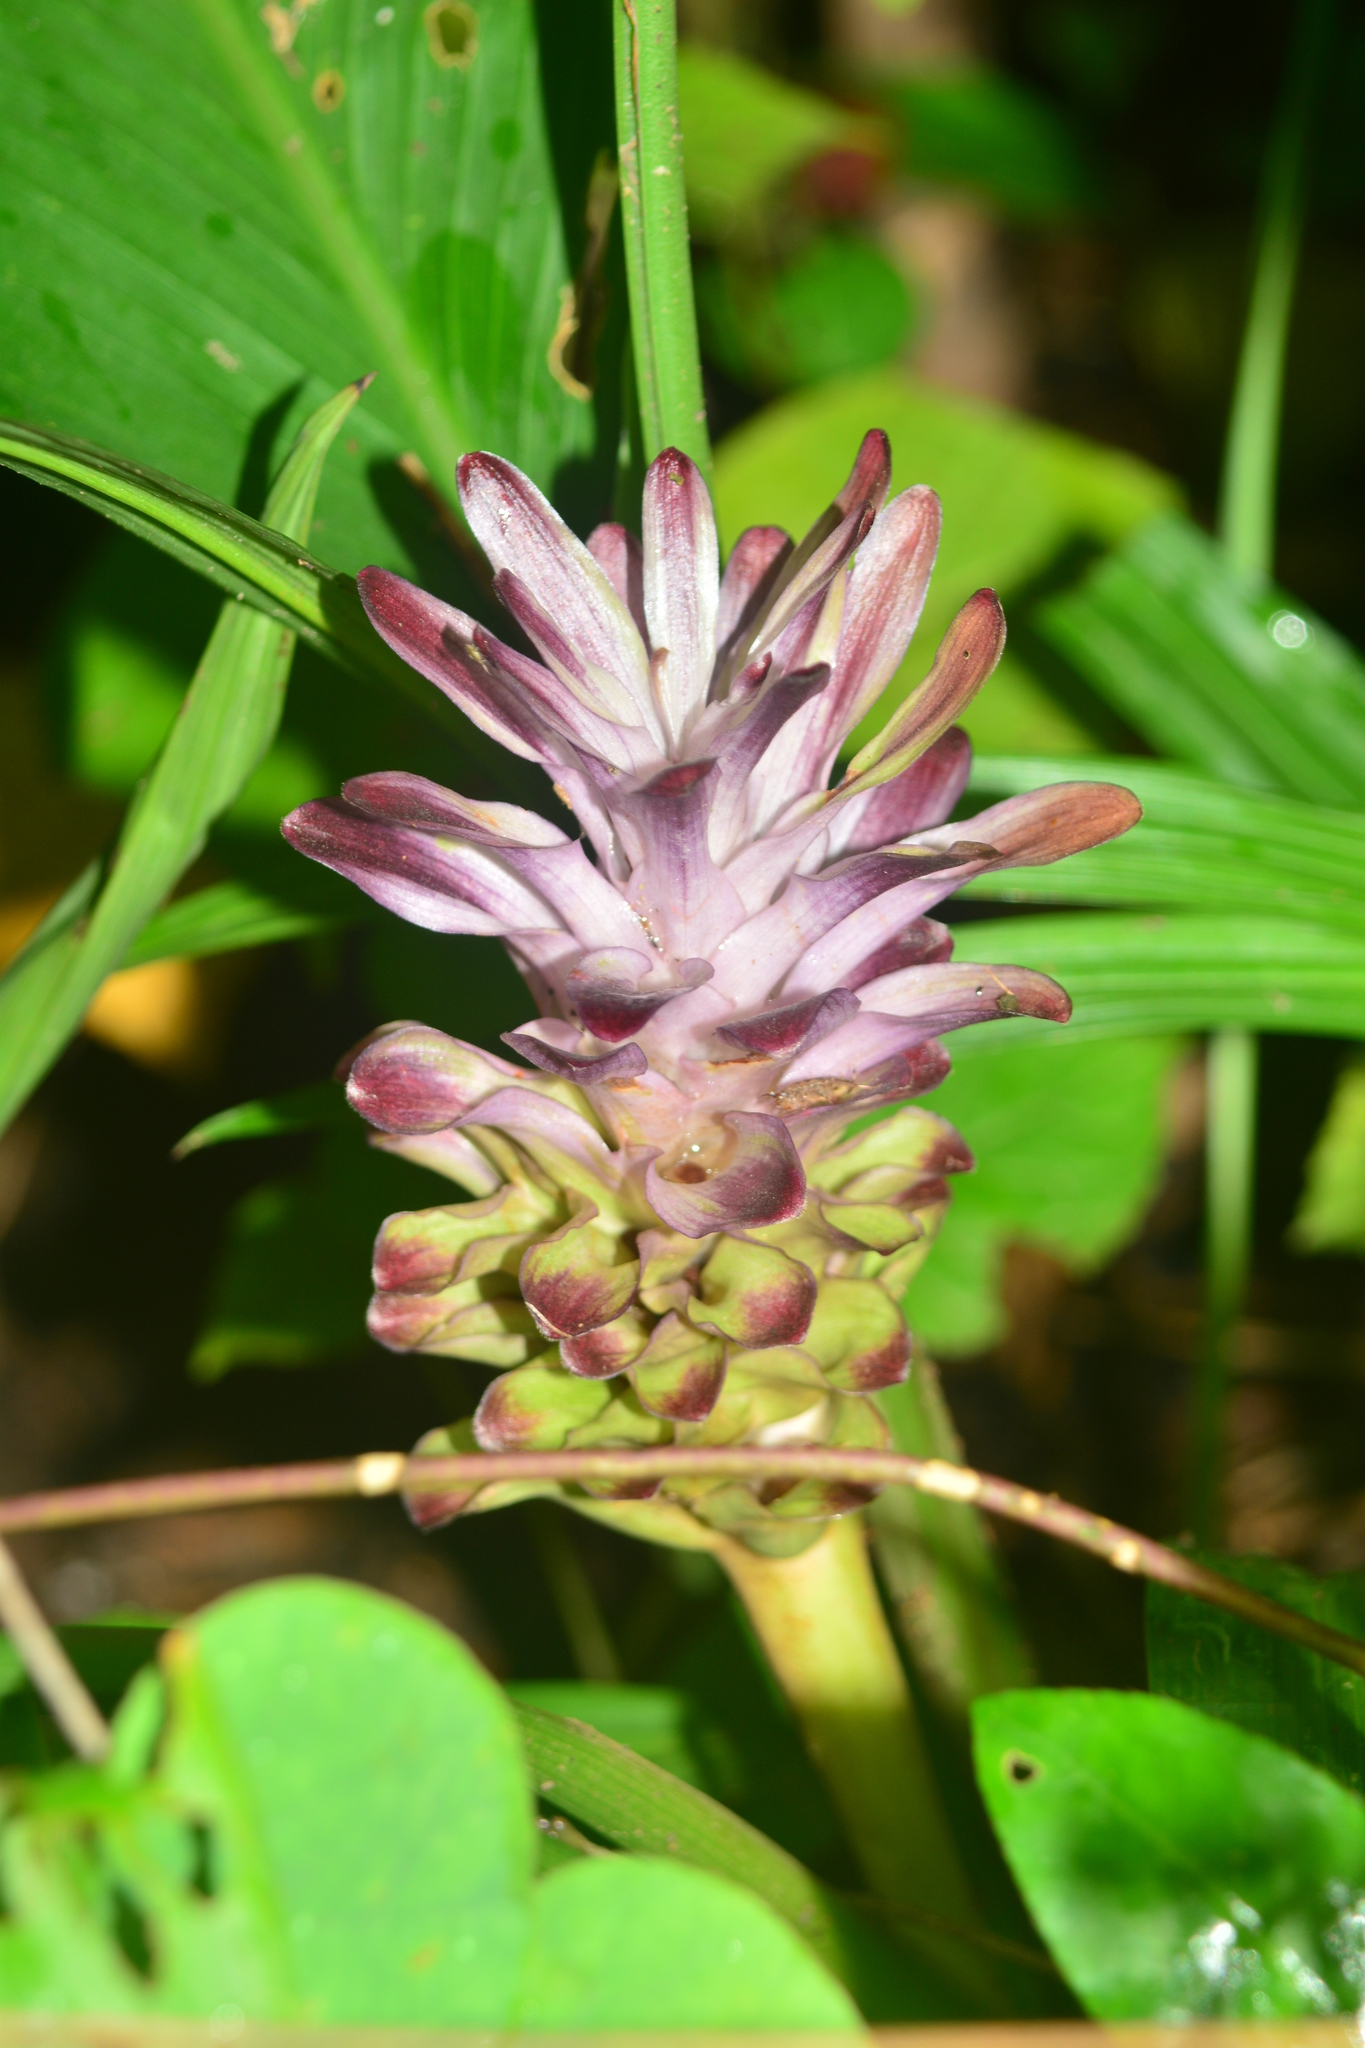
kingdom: Plantae
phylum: Tracheophyta
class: Liliopsida
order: Zingiberales
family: Zingiberaceae
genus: Curcuma
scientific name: Curcuma decipiens
